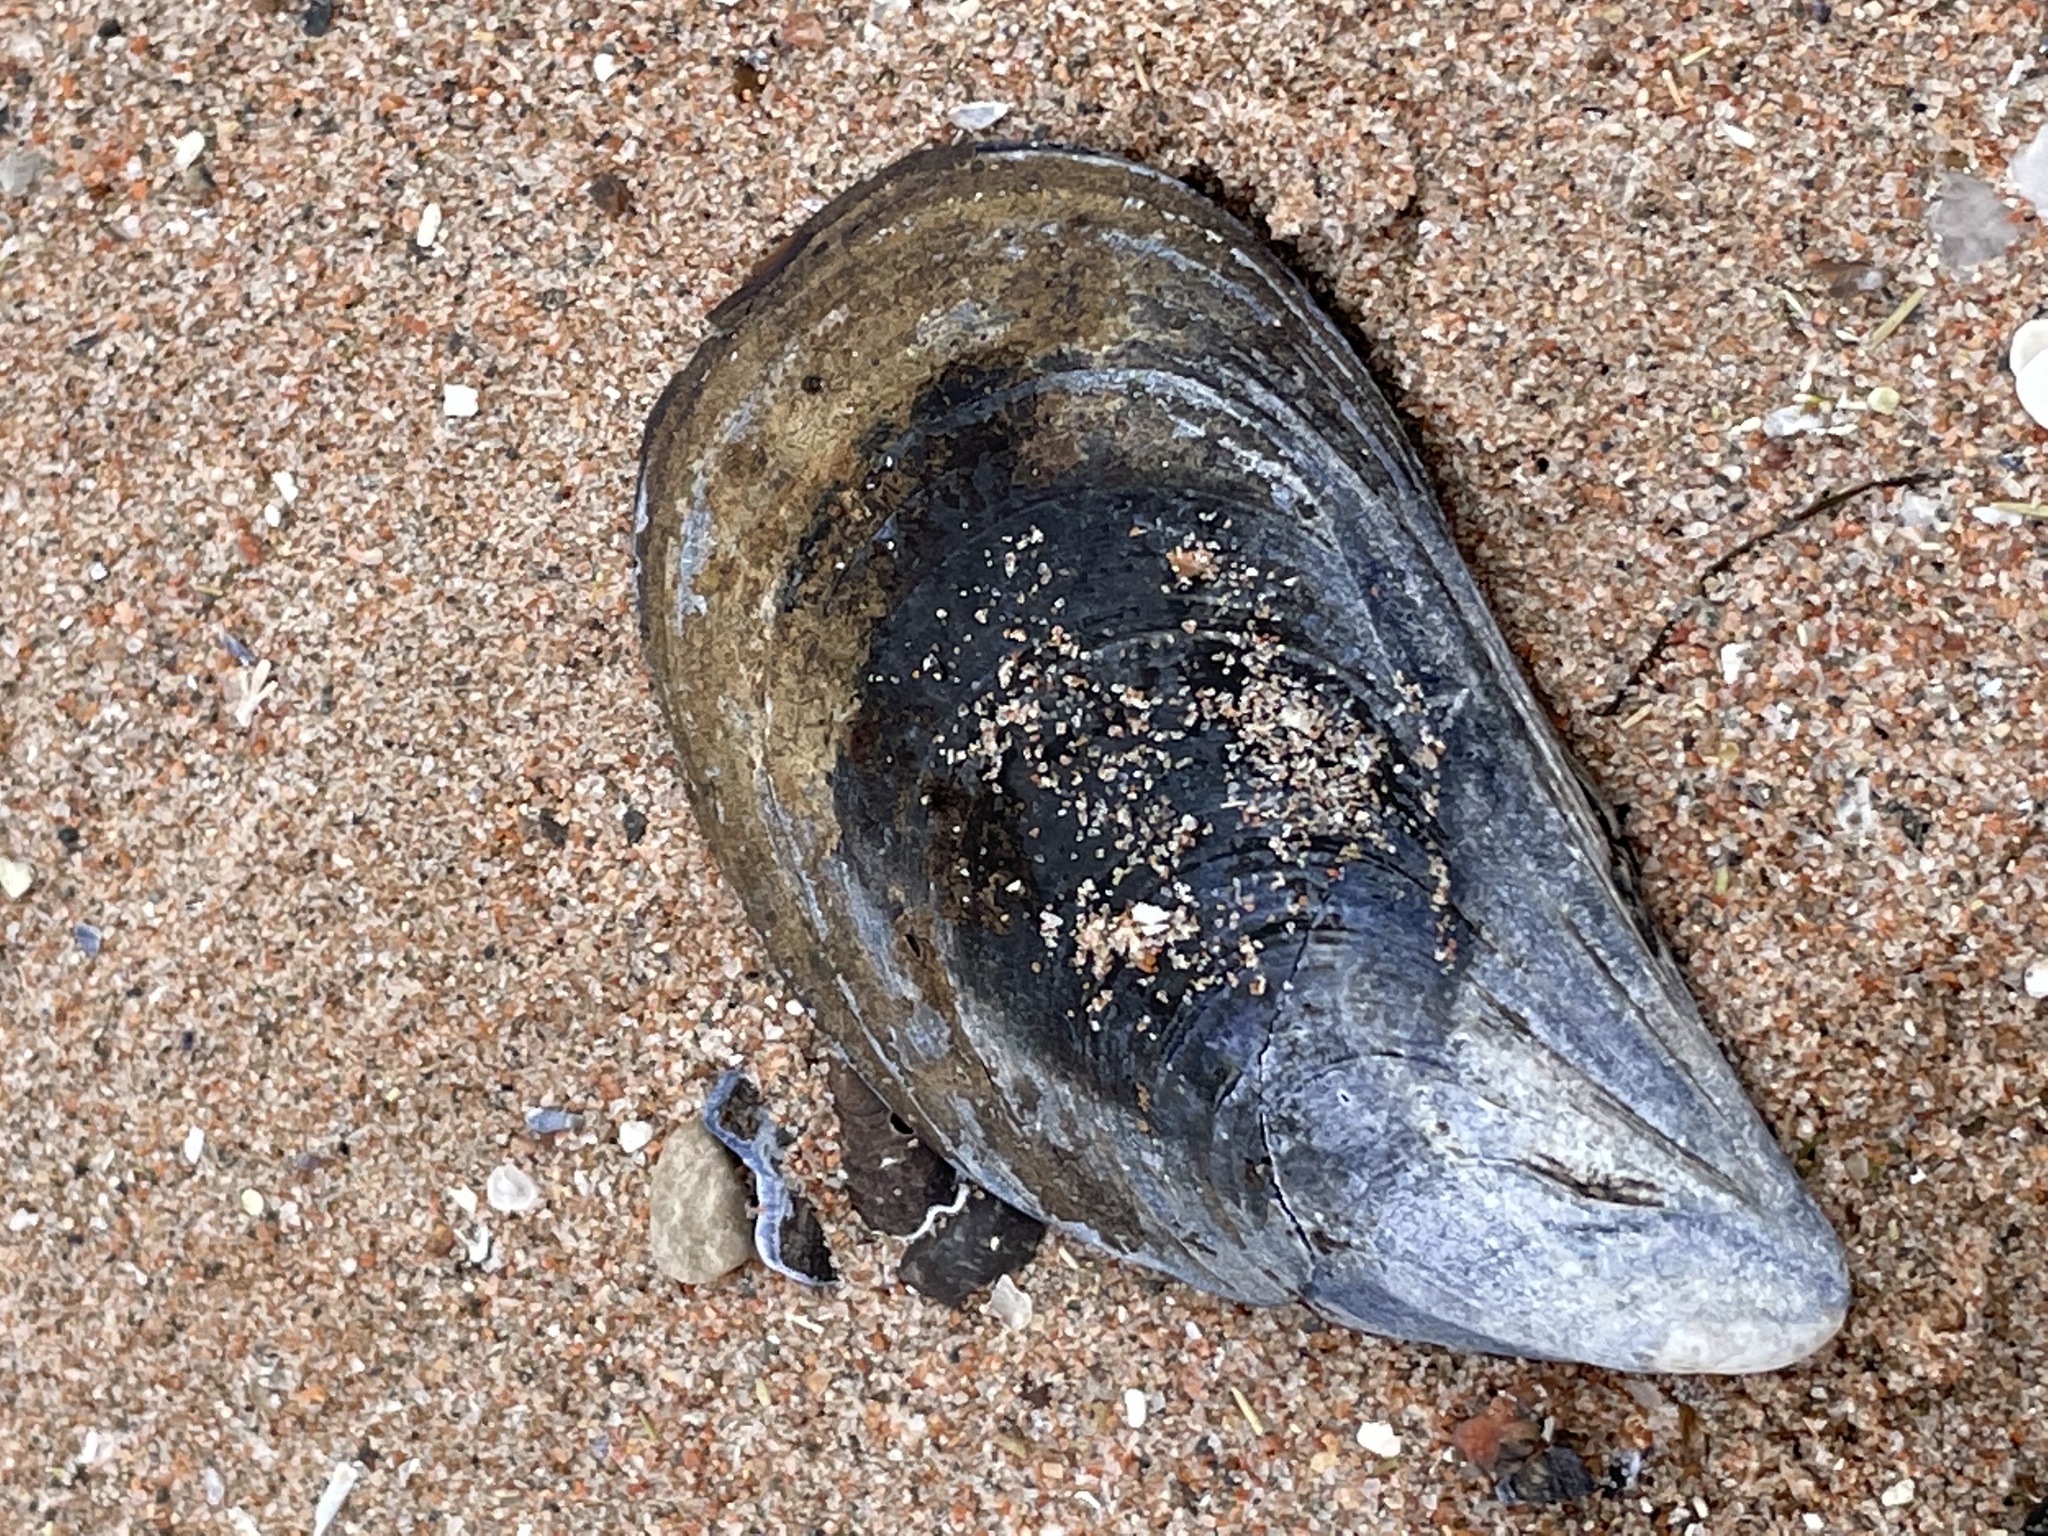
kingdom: Animalia
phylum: Mollusca
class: Bivalvia
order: Mytilida
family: Mytilidae
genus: Mytilus
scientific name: Mytilus edulis
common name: Blue mussel
